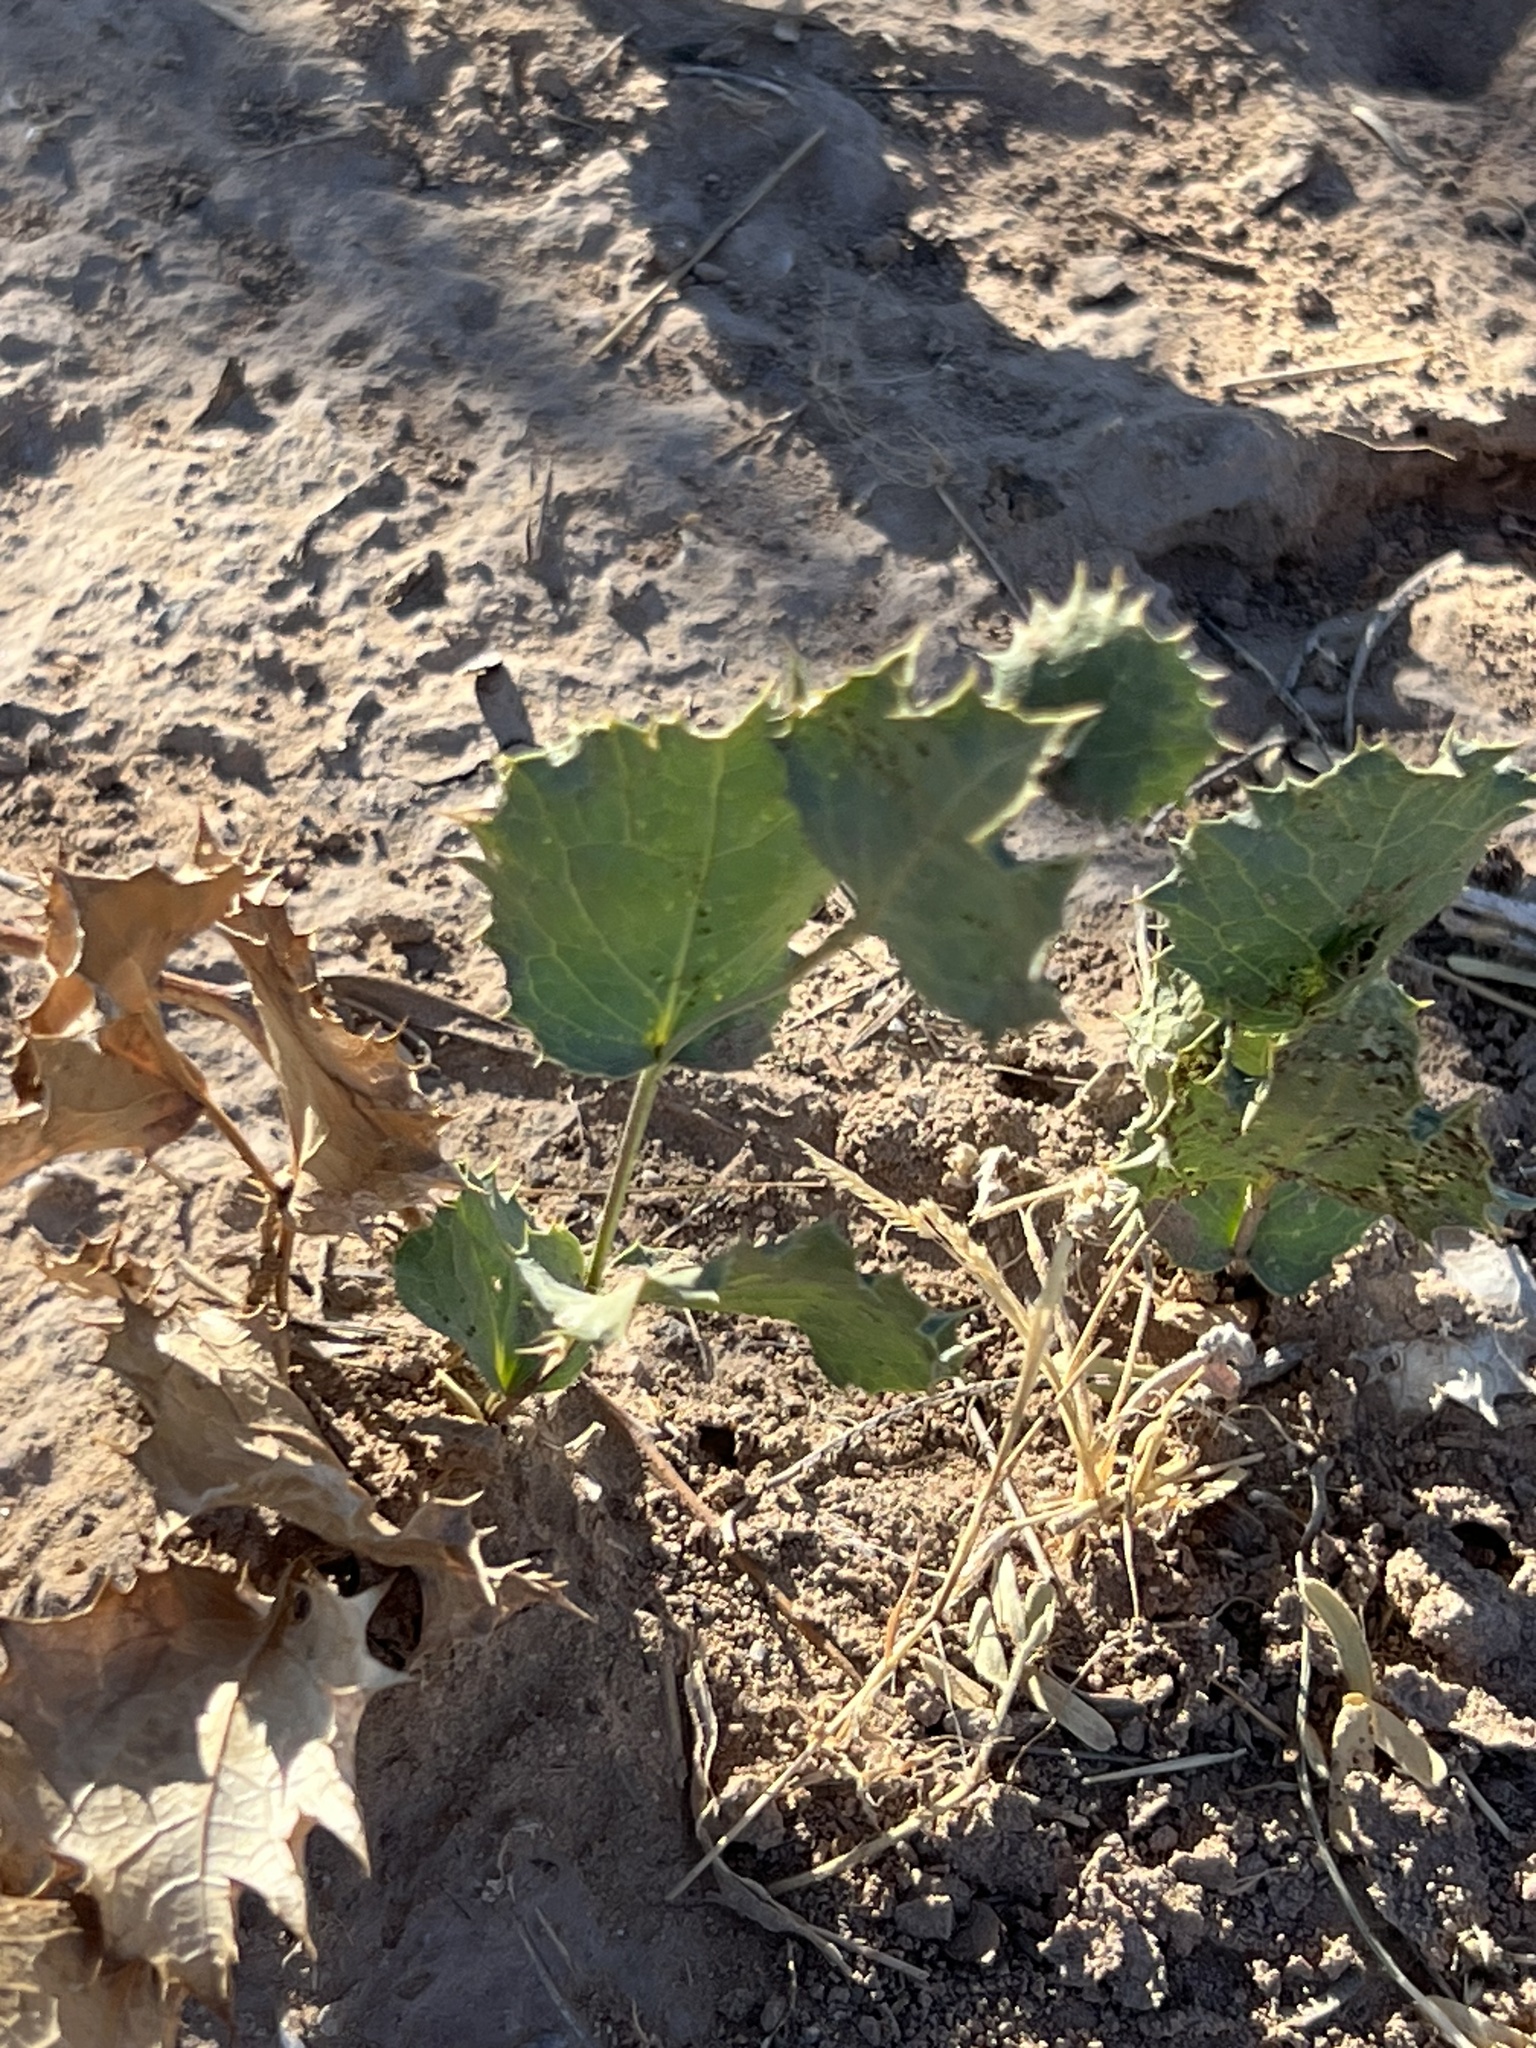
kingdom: Plantae
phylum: Tracheophyta
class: Magnoliopsida
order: Asterales
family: Asteraceae
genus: Acourtia
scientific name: Acourtia nana
